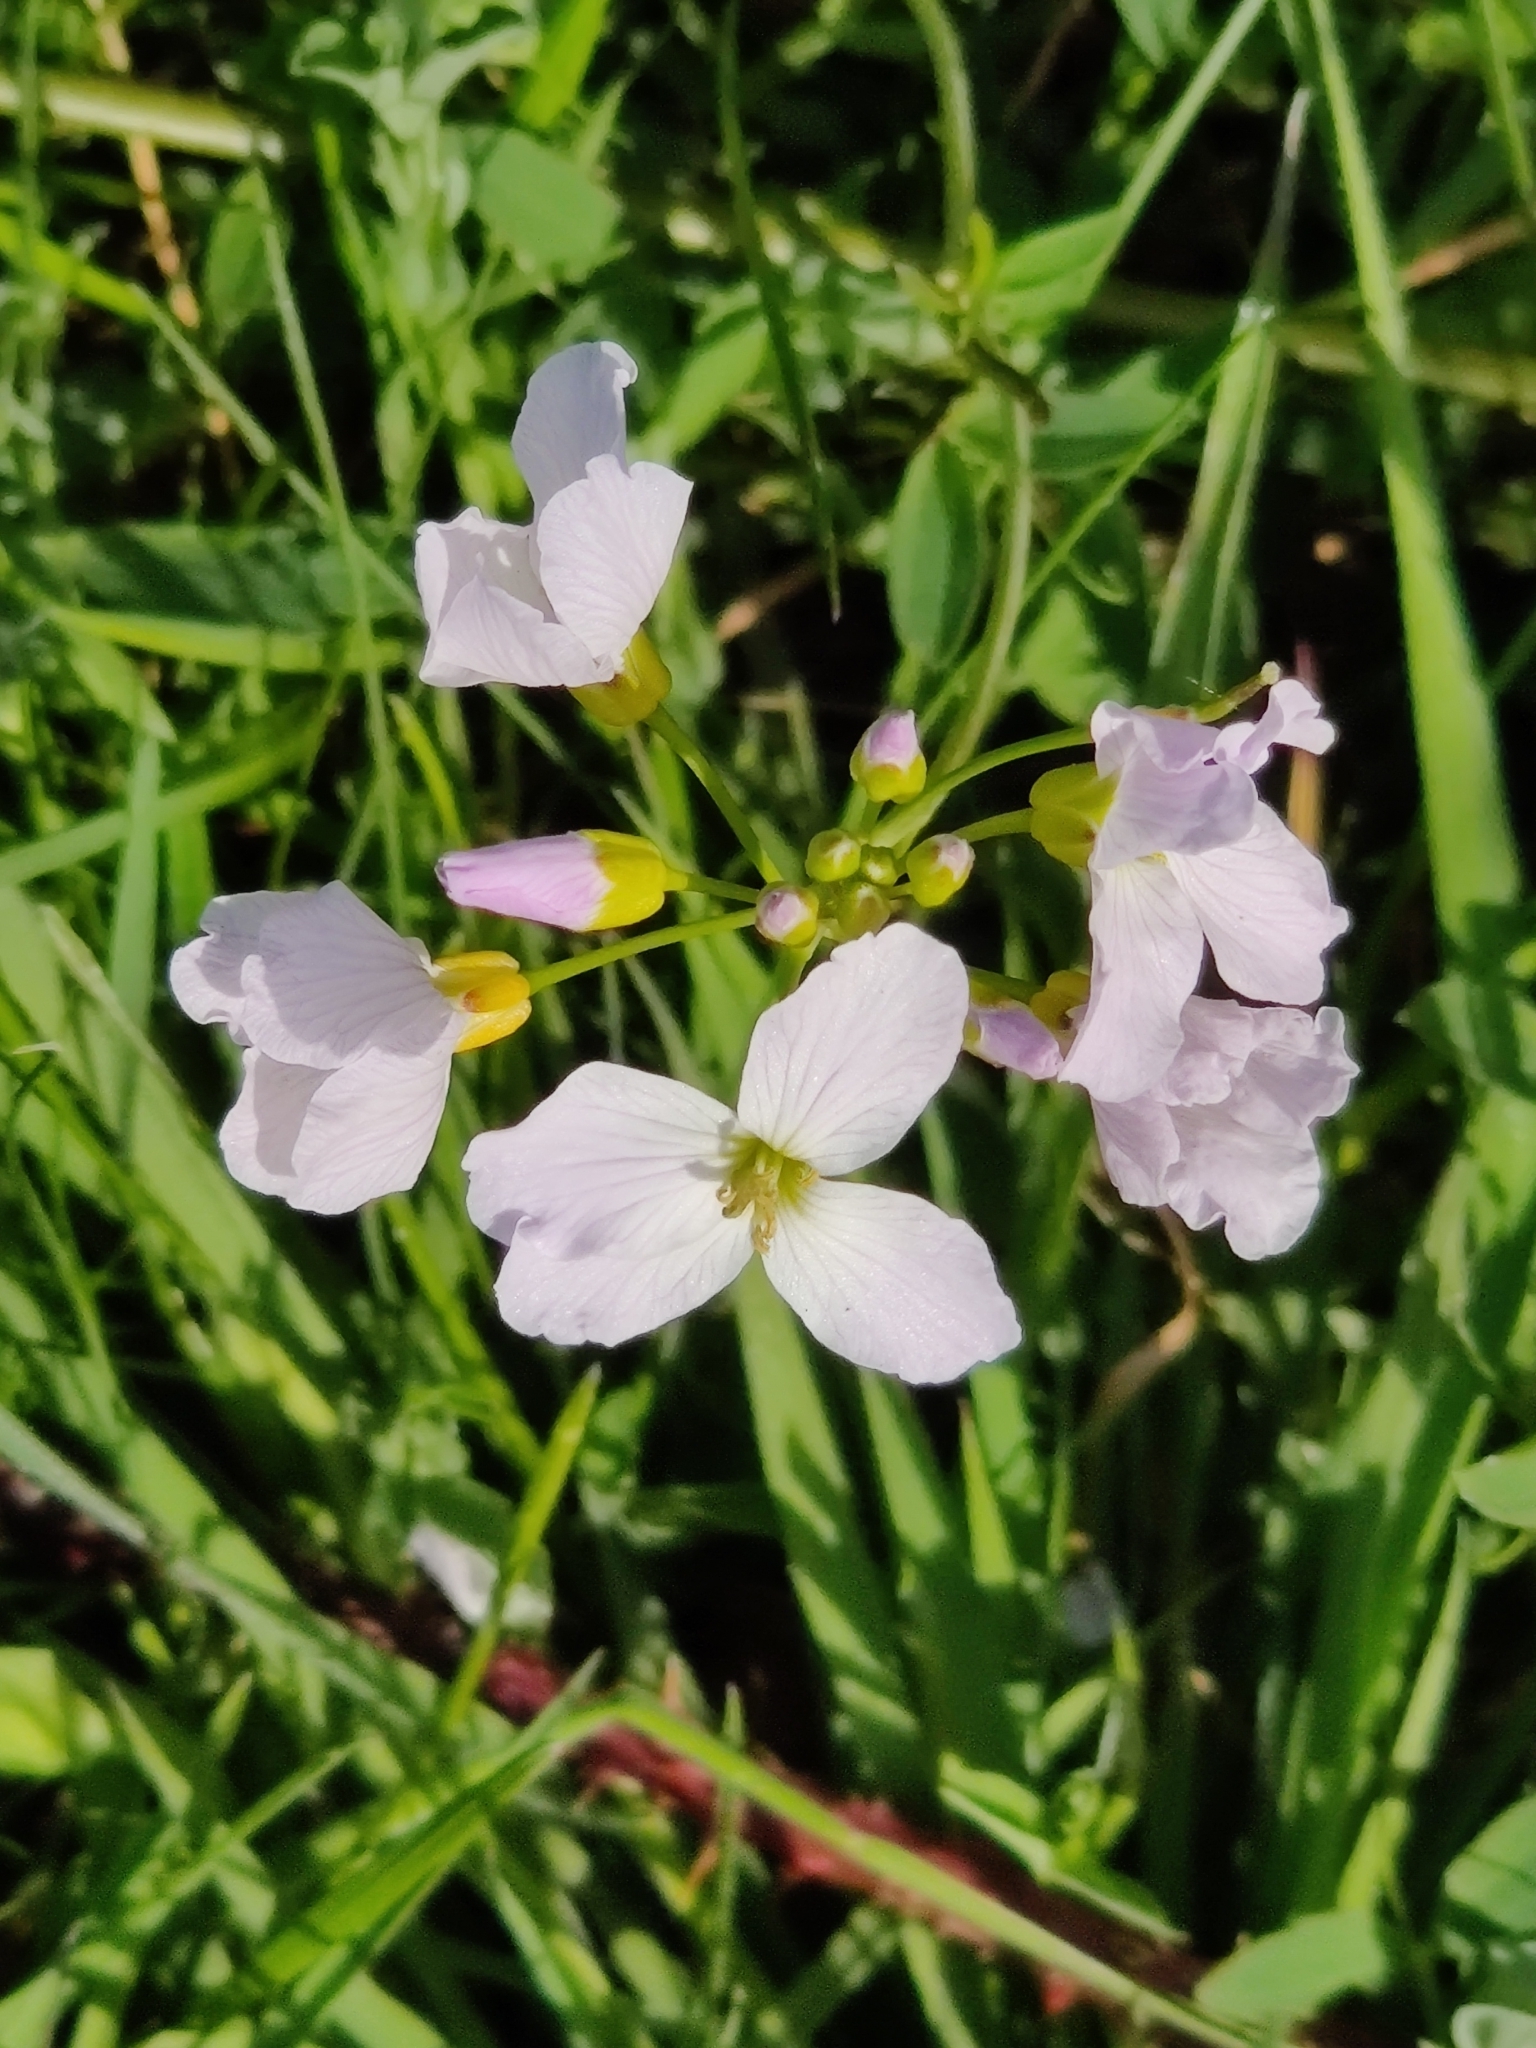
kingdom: Plantae
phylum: Tracheophyta
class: Magnoliopsida
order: Brassicales
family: Brassicaceae
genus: Cardamine
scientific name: Cardamine pratensis
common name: Cuckoo flower
